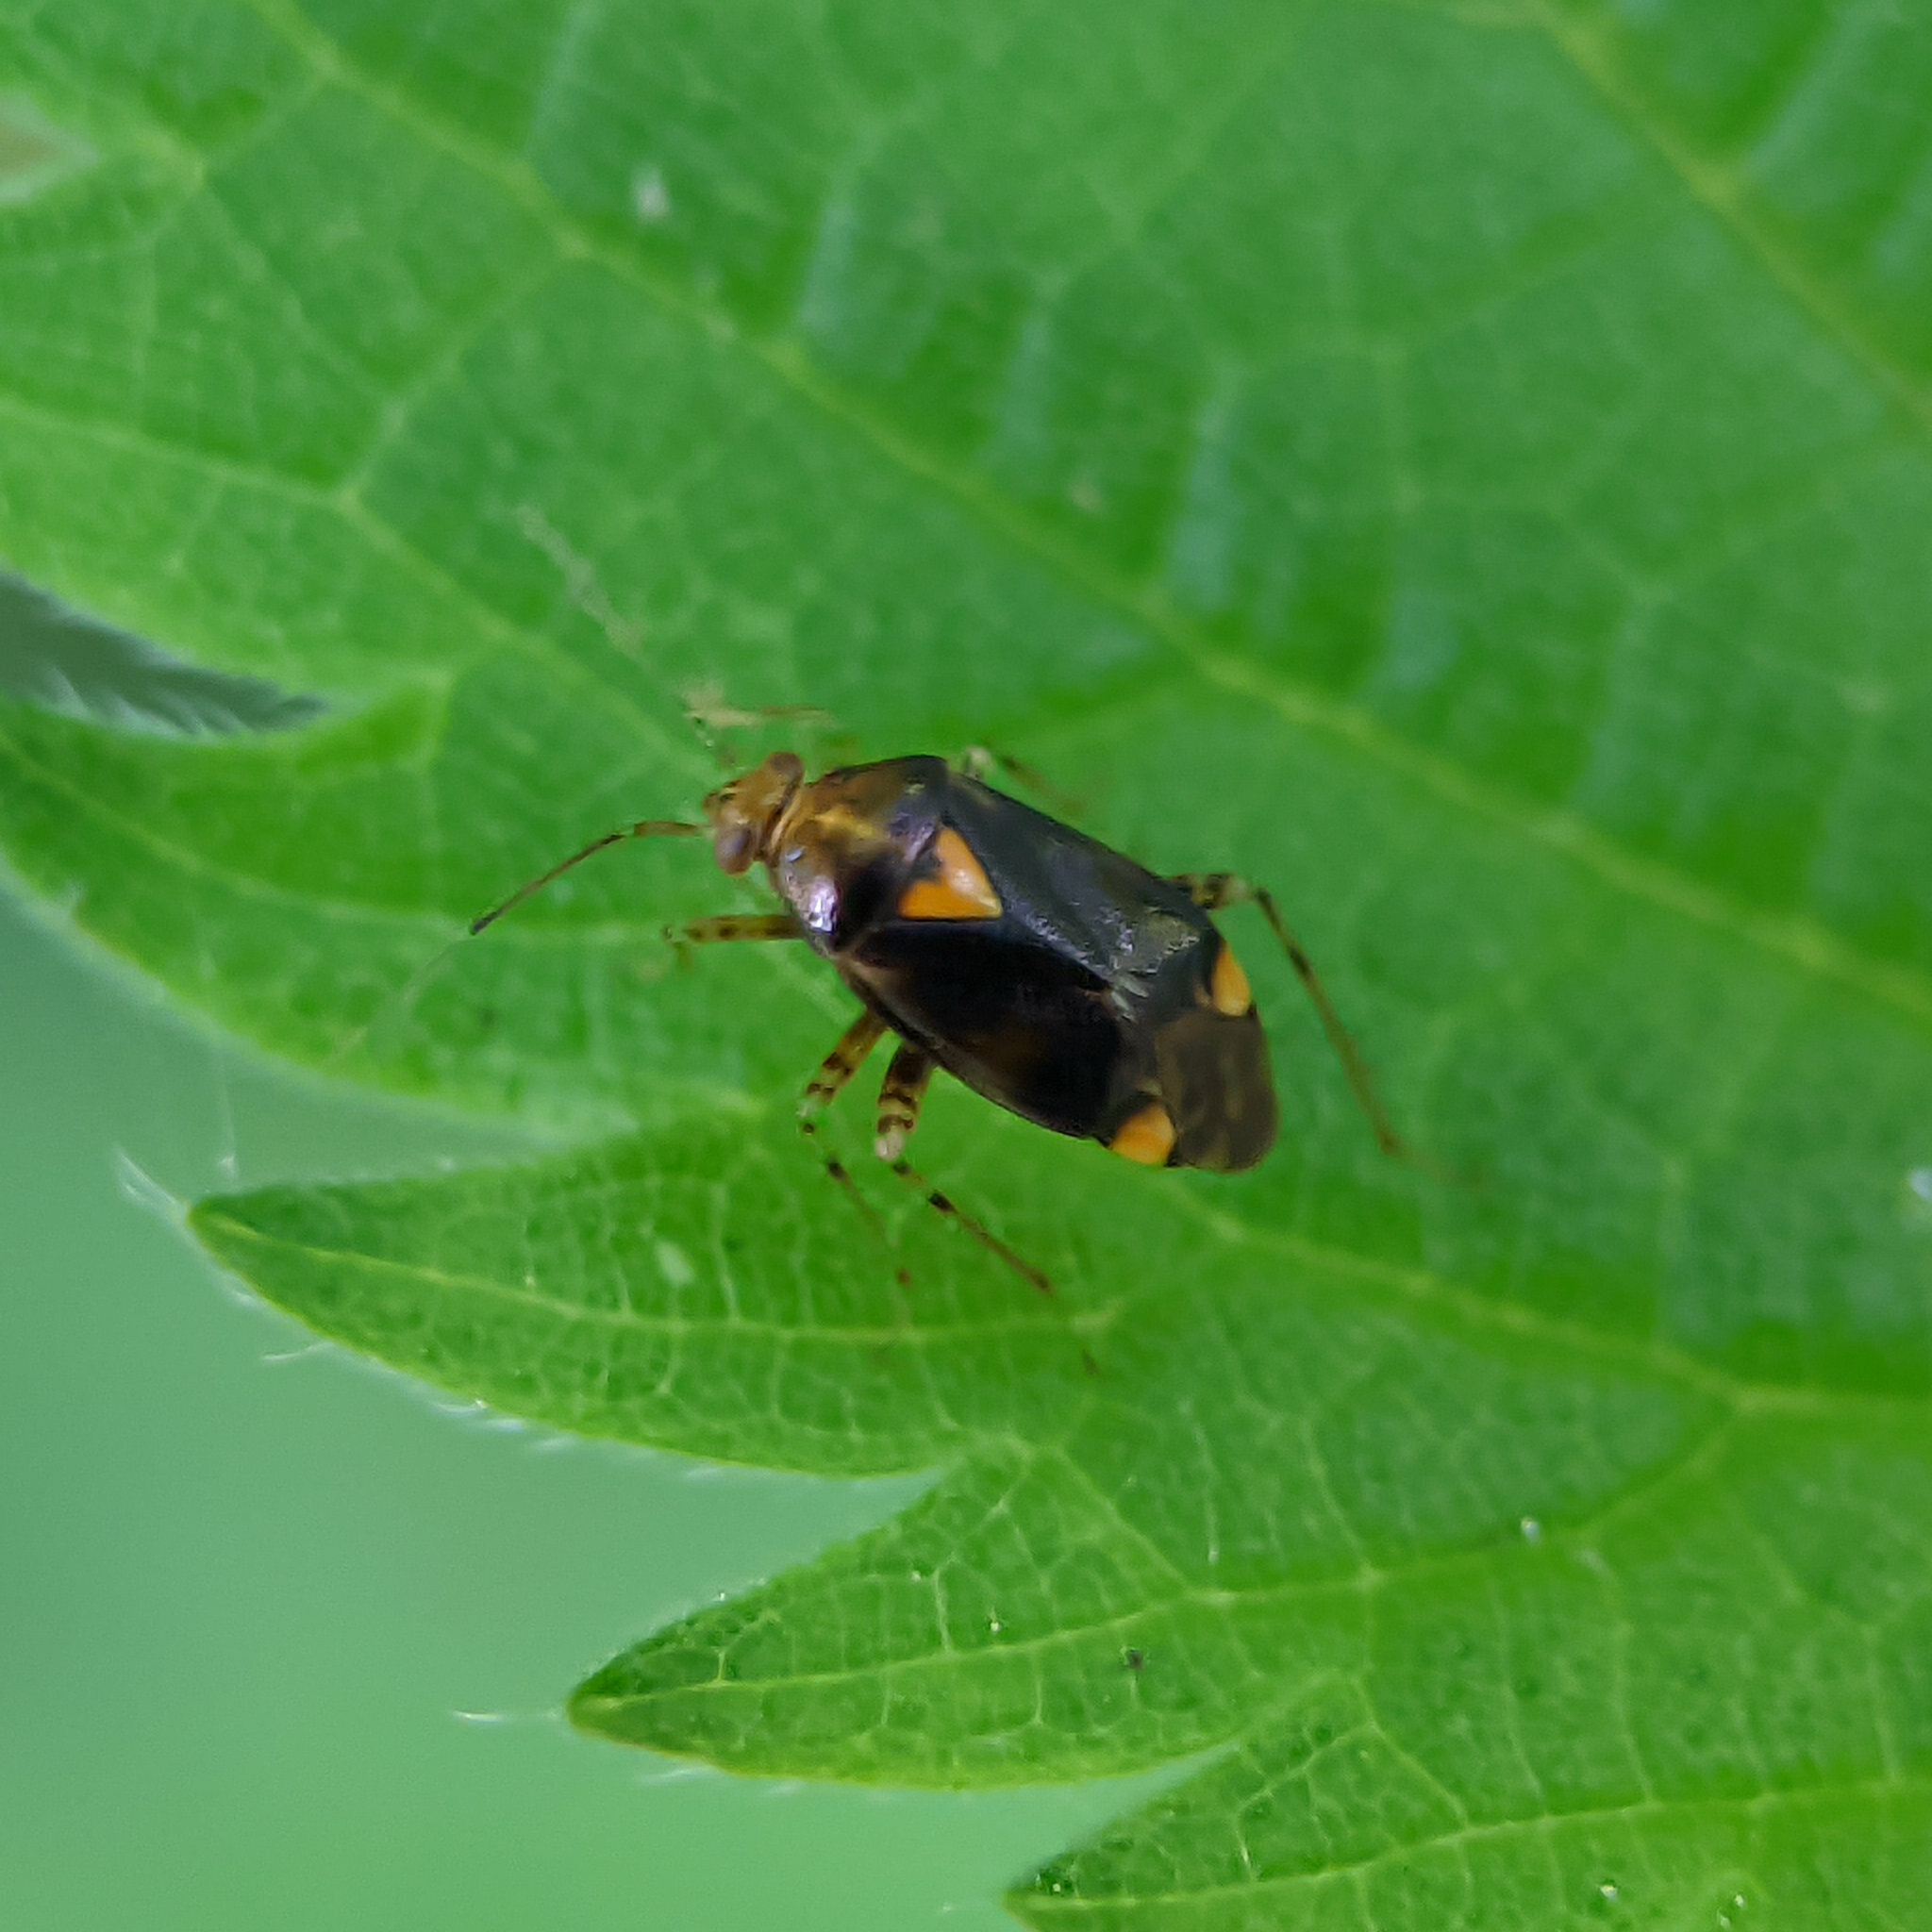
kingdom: Animalia
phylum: Arthropoda
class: Insecta
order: Hemiptera
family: Miridae
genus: Liocoris
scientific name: Liocoris tripustulatus
